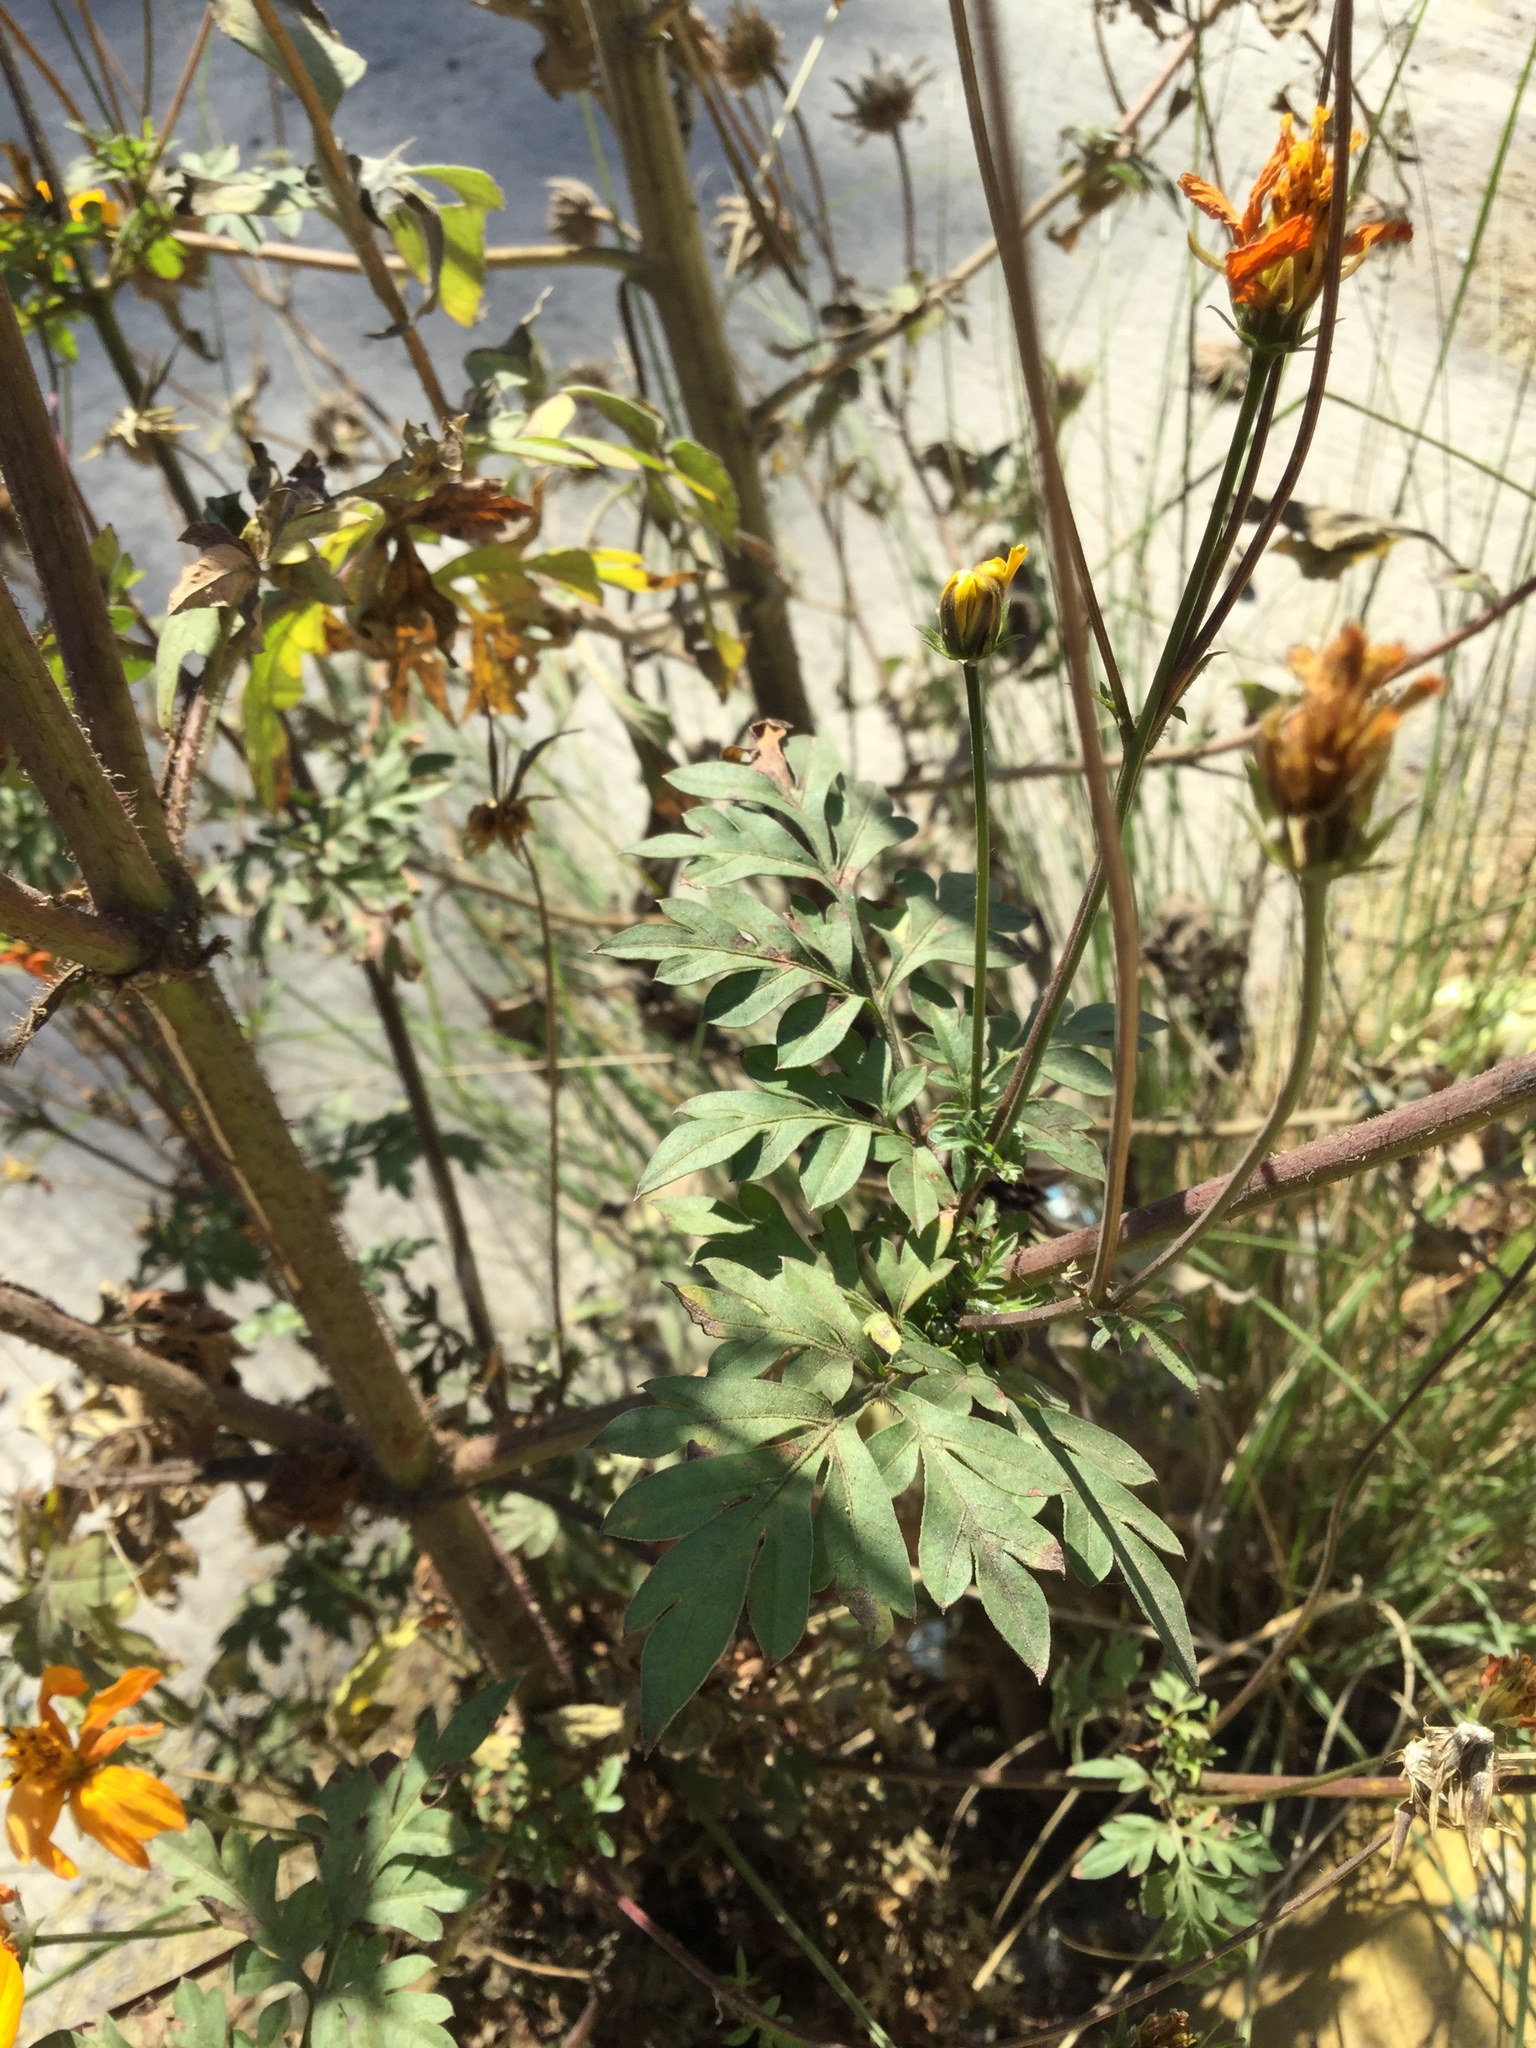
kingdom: Plantae
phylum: Tracheophyta
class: Magnoliopsida
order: Asterales
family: Asteraceae
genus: Cosmos
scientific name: Cosmos sulphureus
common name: Sulphur cosmos
